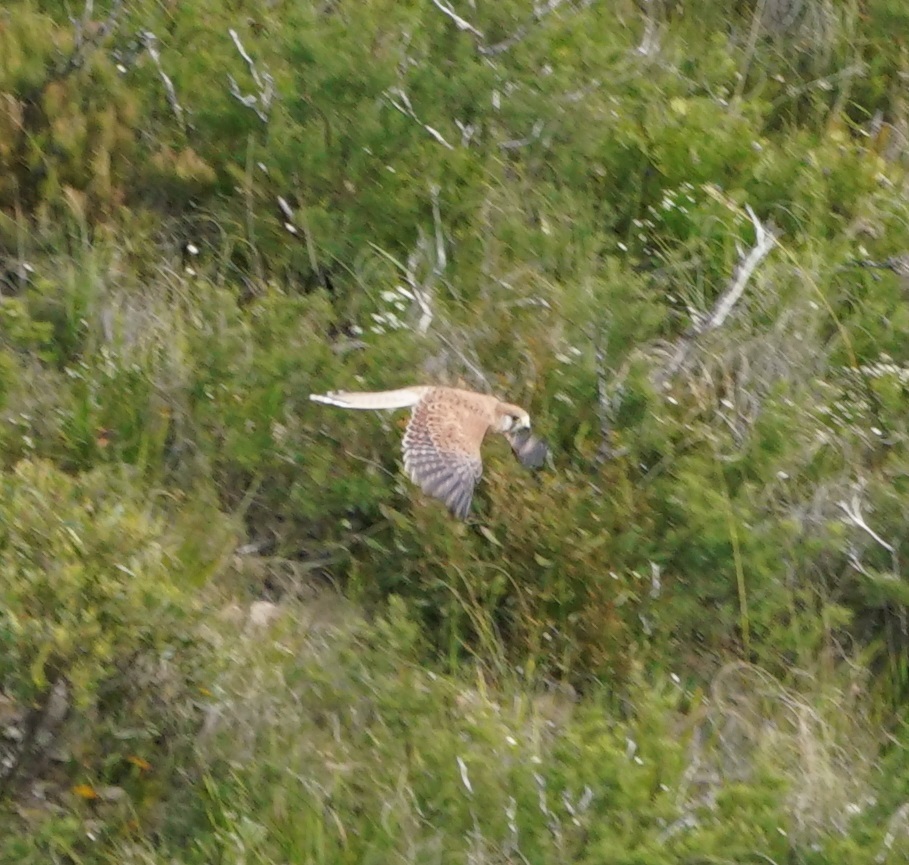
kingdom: Animalia
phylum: Chordata
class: Aves
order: Falconiformes
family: Falconidae
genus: Falco
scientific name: Falco cenchroides
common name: Nankeen kestrel
